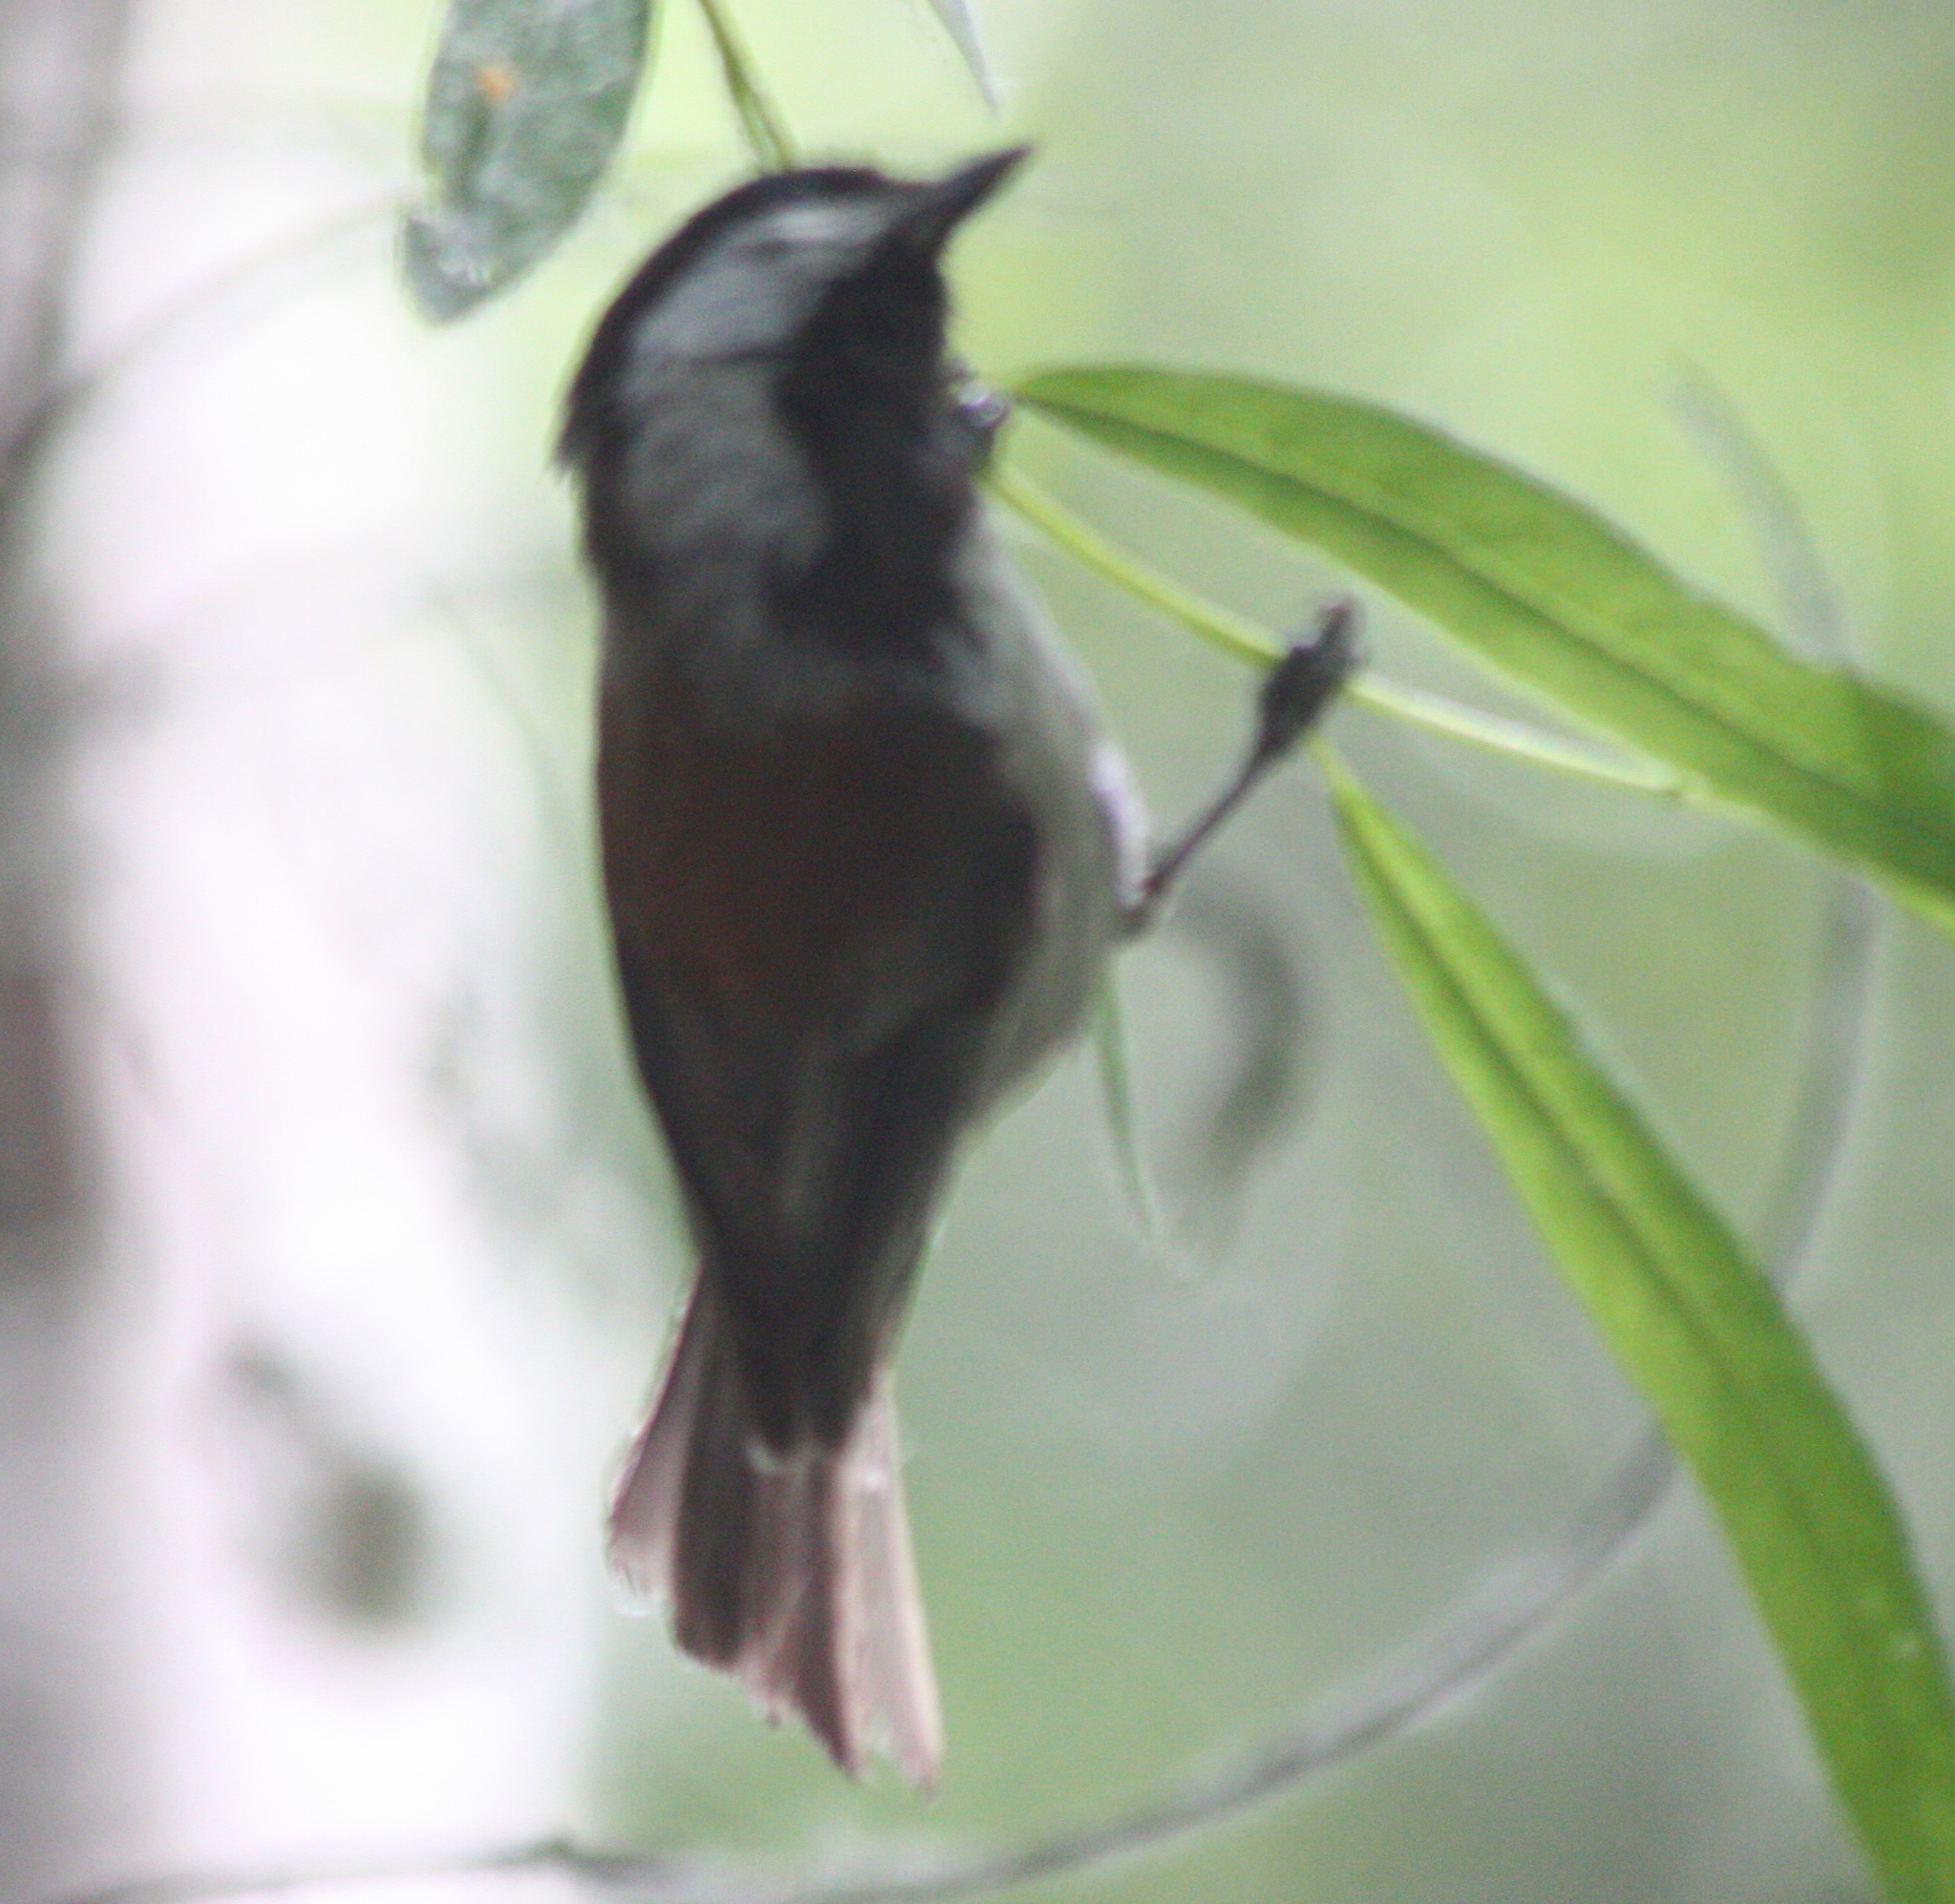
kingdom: Animalia
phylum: Chordata
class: Aves
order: Passeriformes
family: Paridae
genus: Poecile
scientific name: Poecile rufescens
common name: Chestnut-backed chickadee
